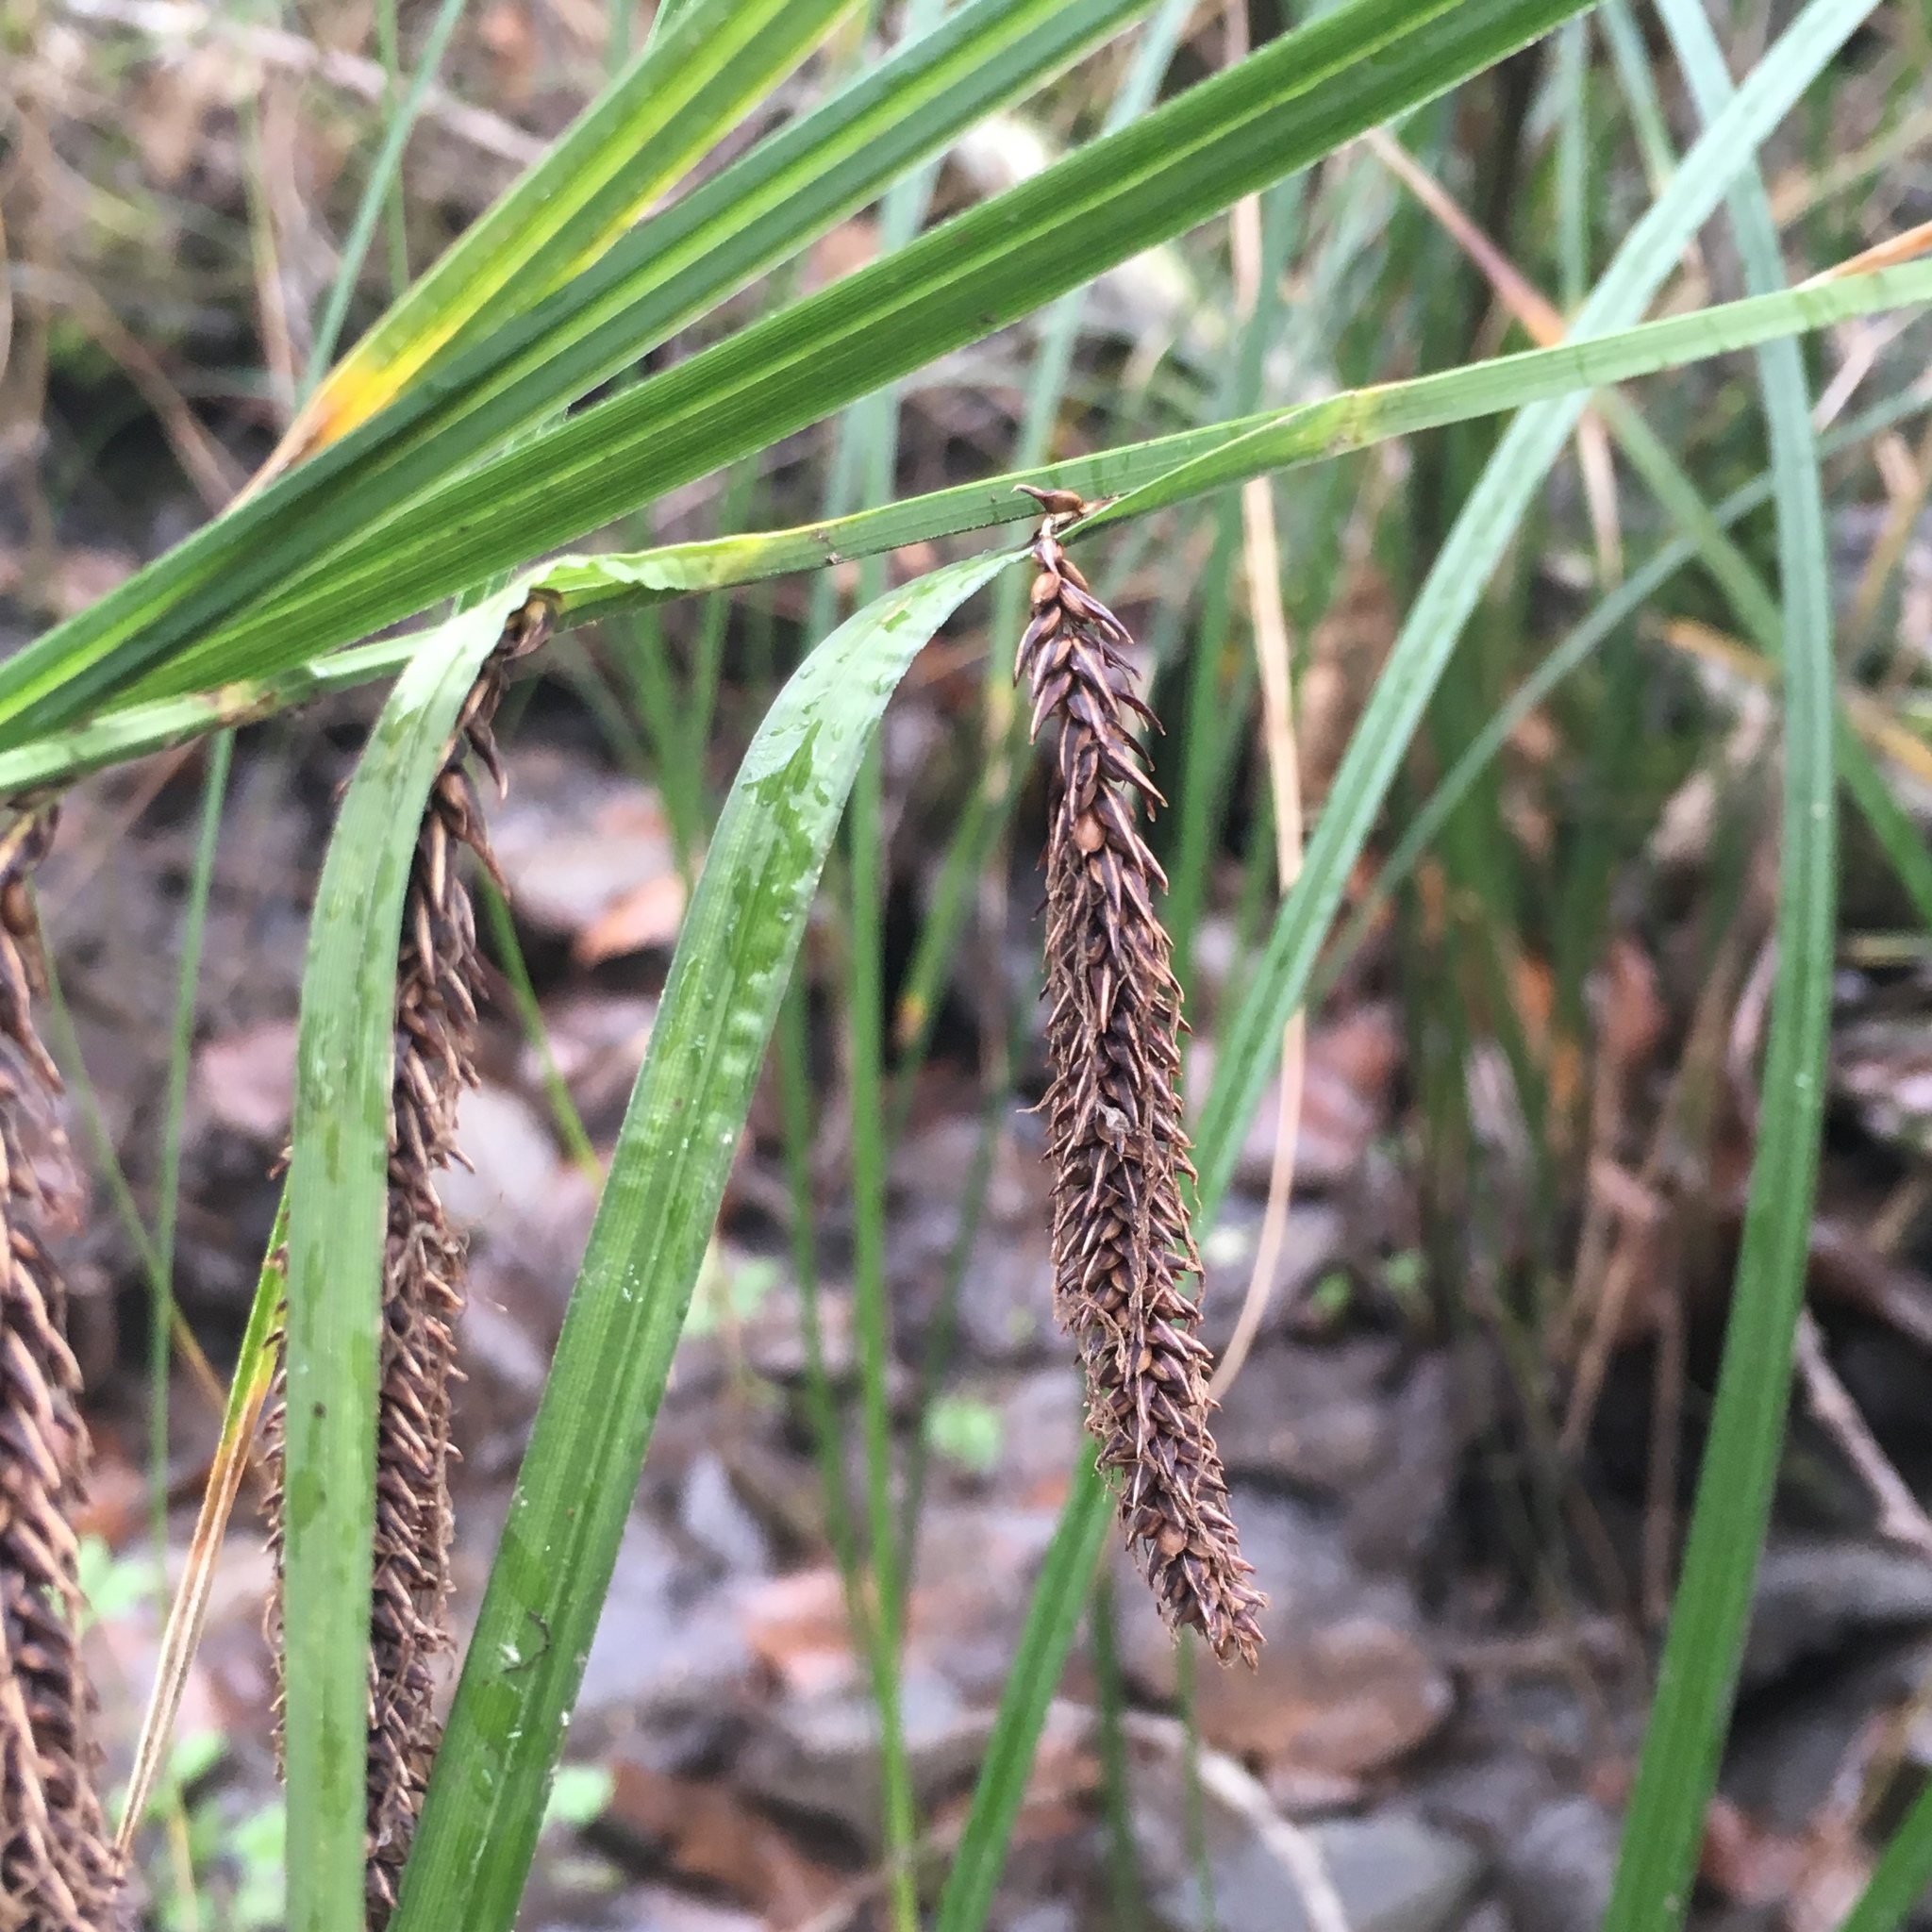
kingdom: Plantae
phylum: Tracheophyta
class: Liliopsida
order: Poales
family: Cyperaceae
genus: Carex
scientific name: Carex obnupta
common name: Slough sedge
